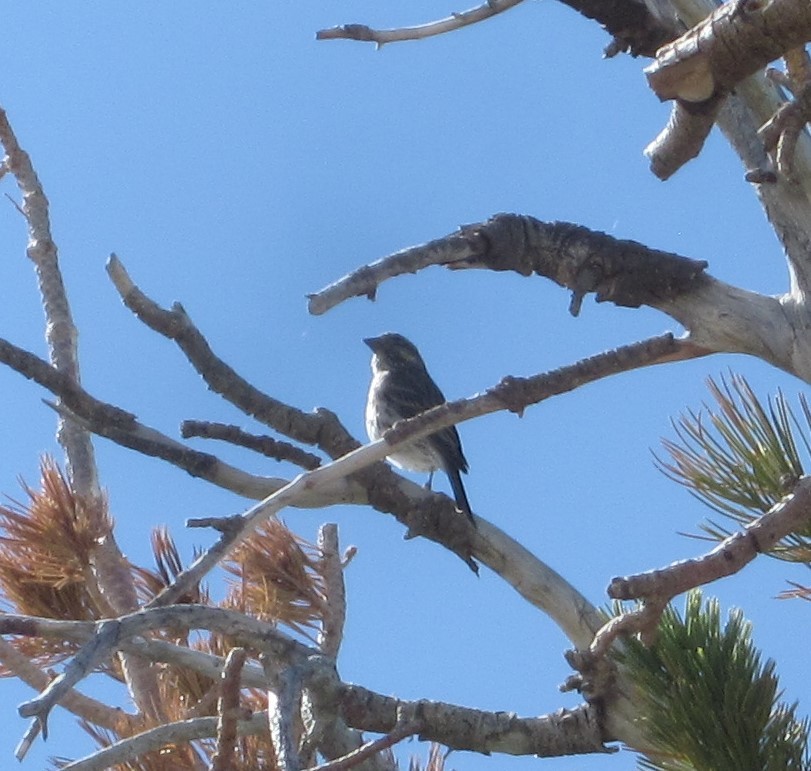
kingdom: Animalia
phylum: Chordata
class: Aves
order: Passeriformes
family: Fringillidae
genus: Haemorhous
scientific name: Haemorhous cassinii
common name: Cassin's finch
